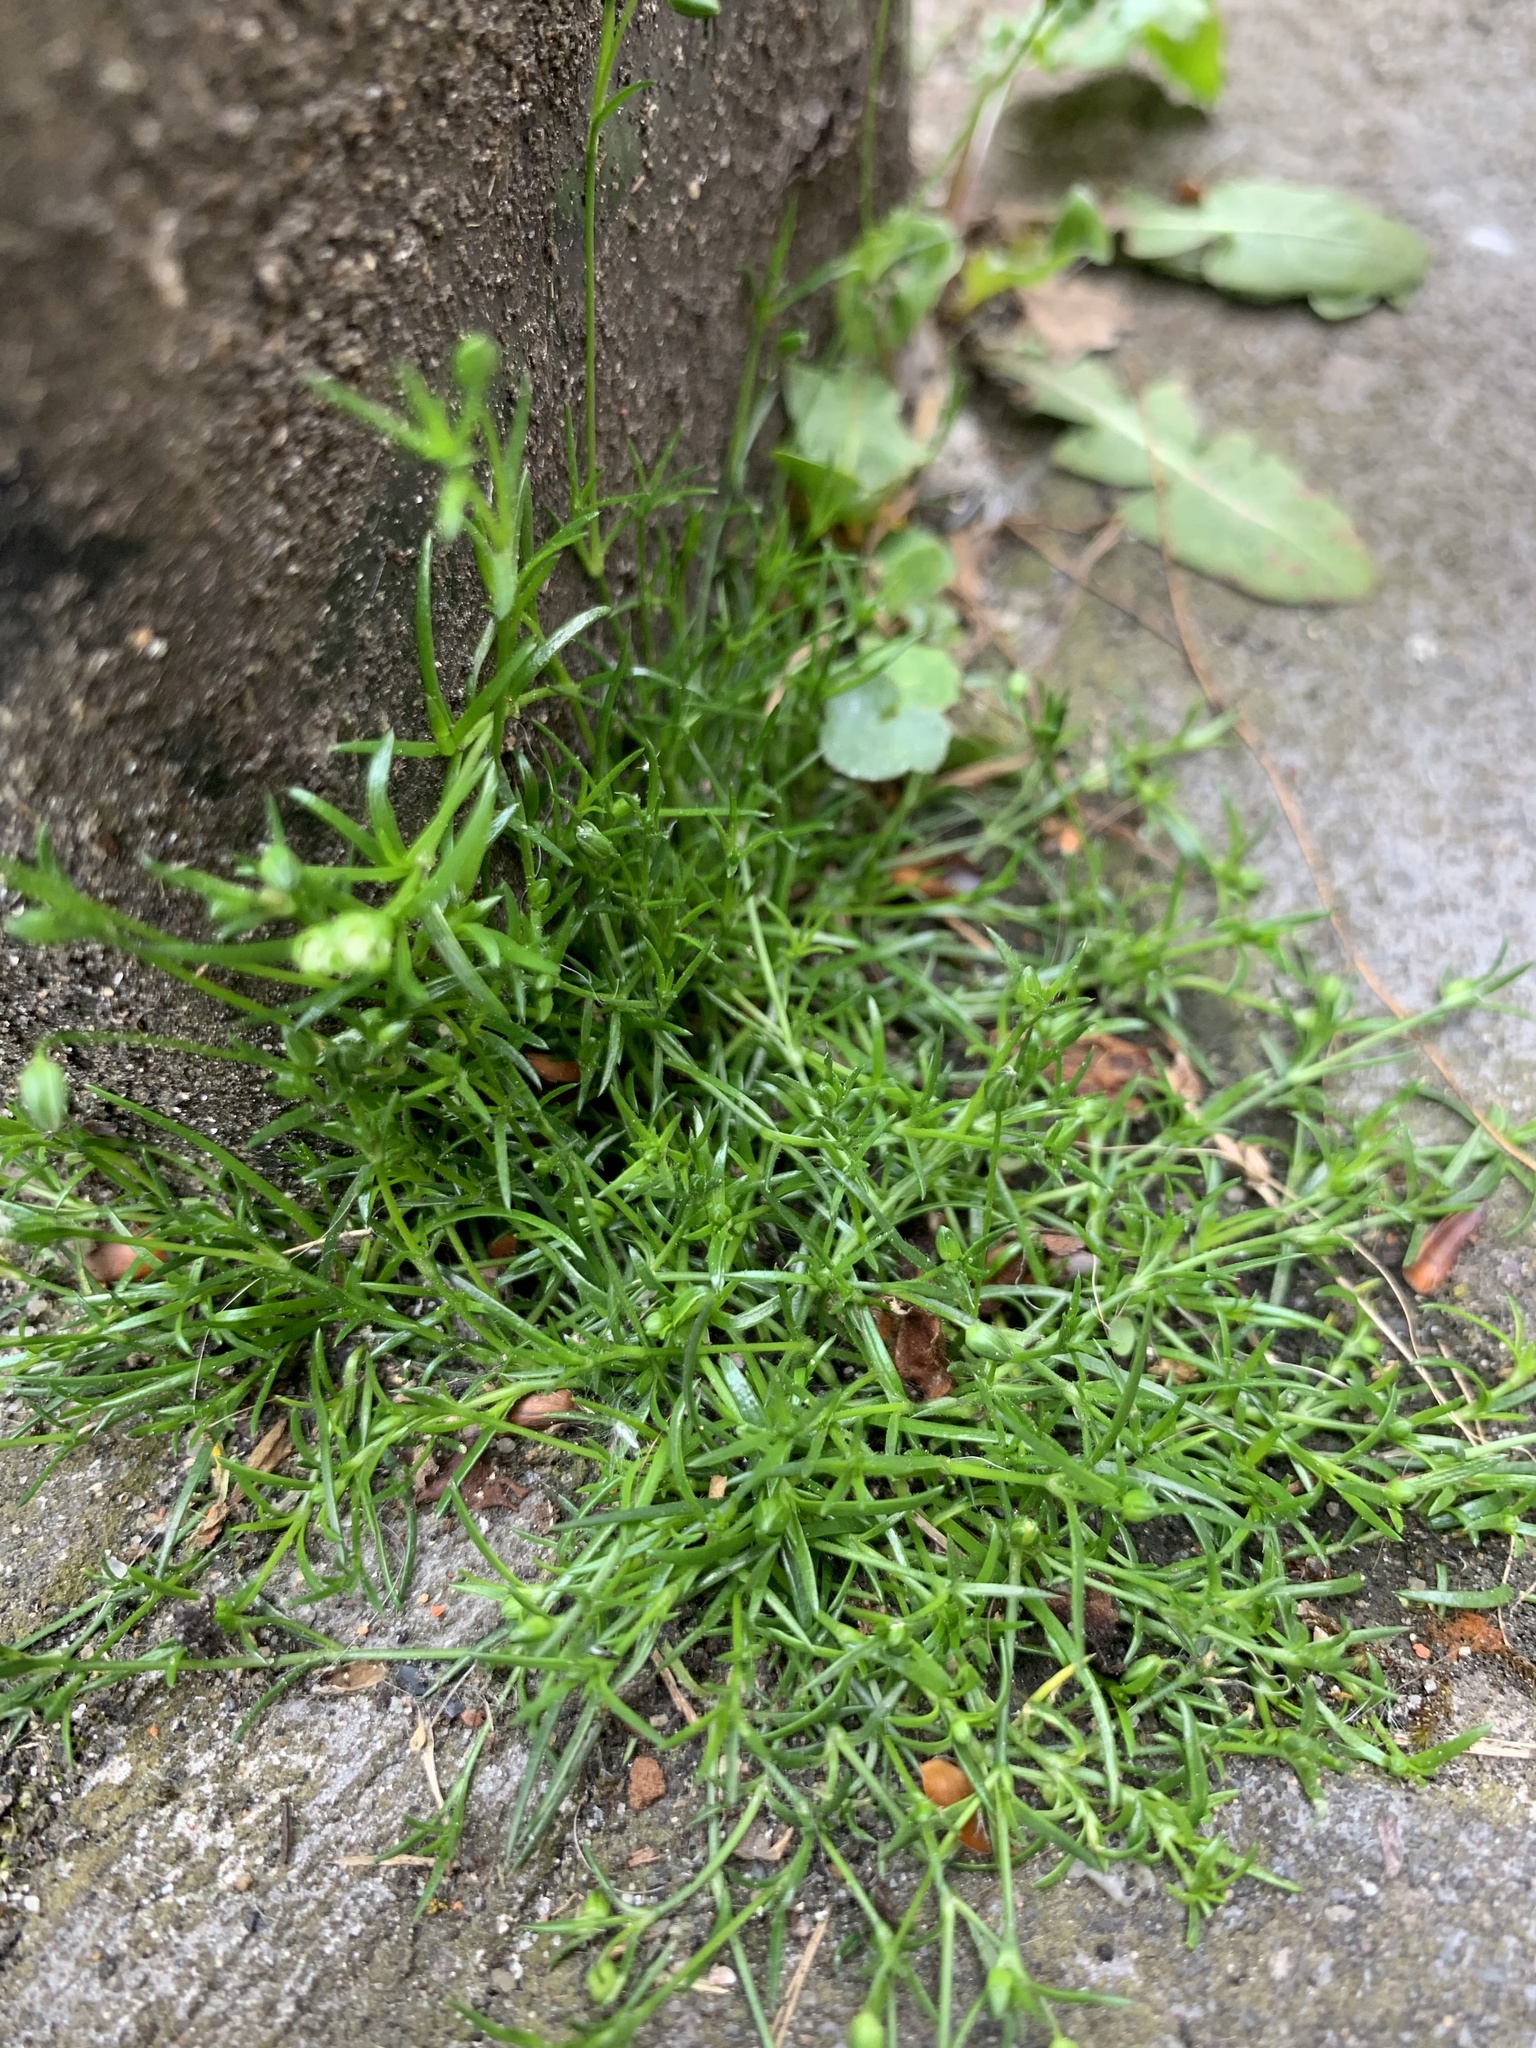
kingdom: Plantae
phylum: Tracheophyta
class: Magnoliopsida
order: Caryophyllales
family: Caryophyllaceae
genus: Sagina
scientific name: Sagina procumbens
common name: Procumbent pearlwort
